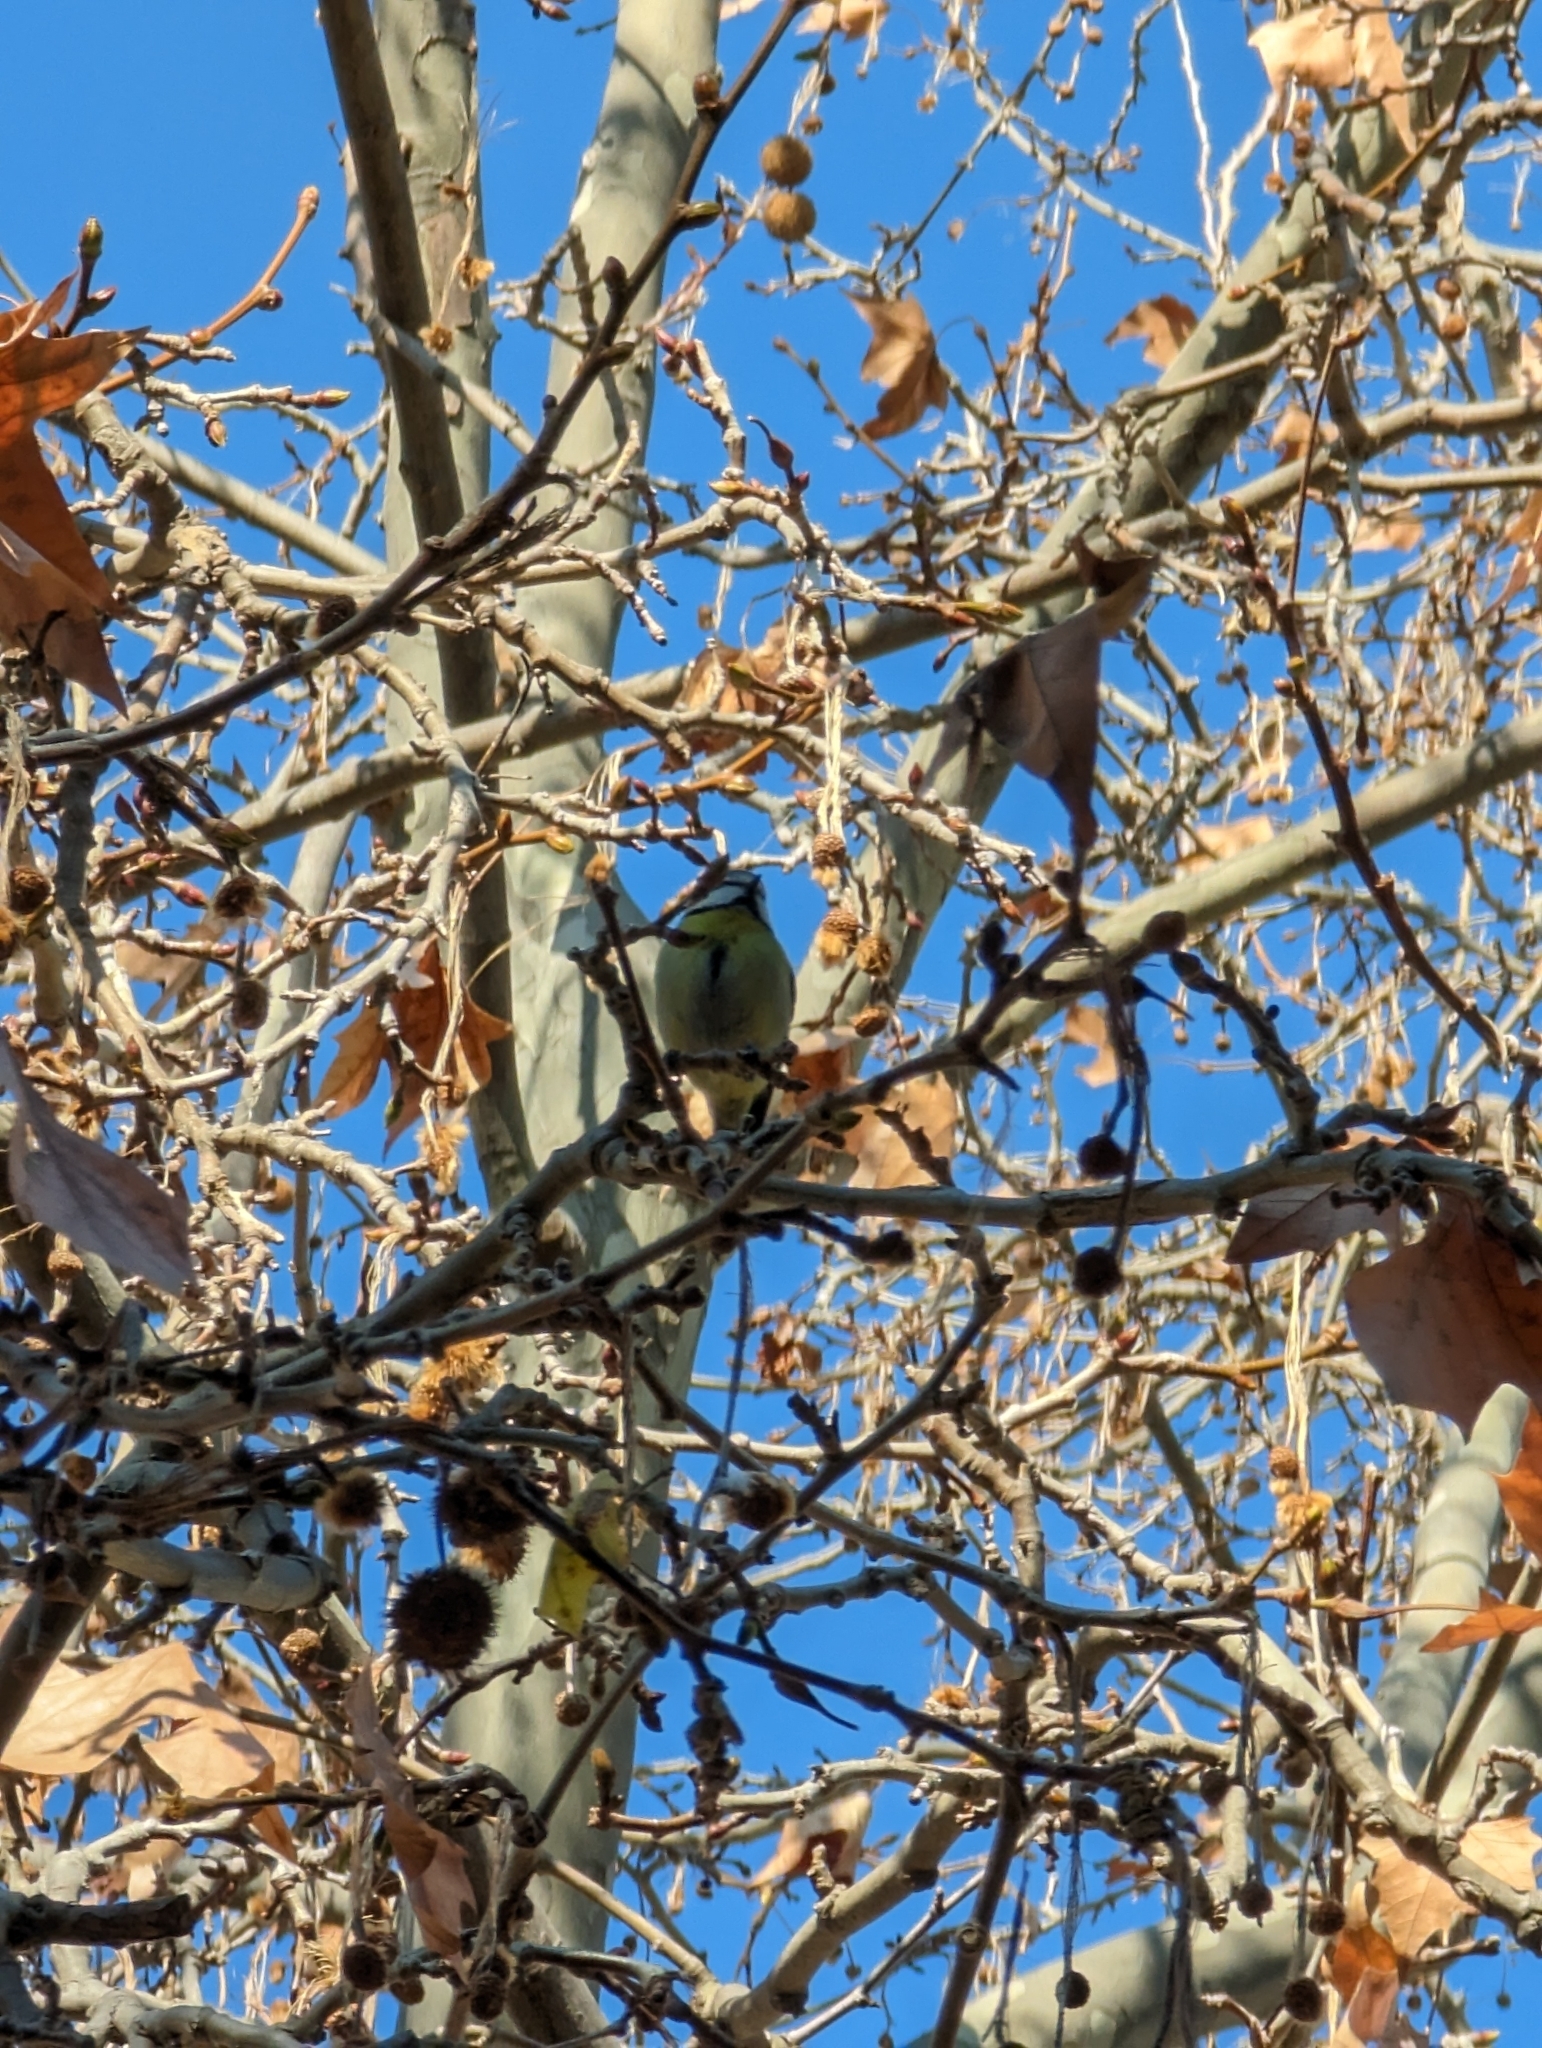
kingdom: Animalia
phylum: Chordata
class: Aves
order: Passeriformes
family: Paridae
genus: Cyanistes
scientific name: Cyanistes caeruleus
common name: Eurasian blue tit
